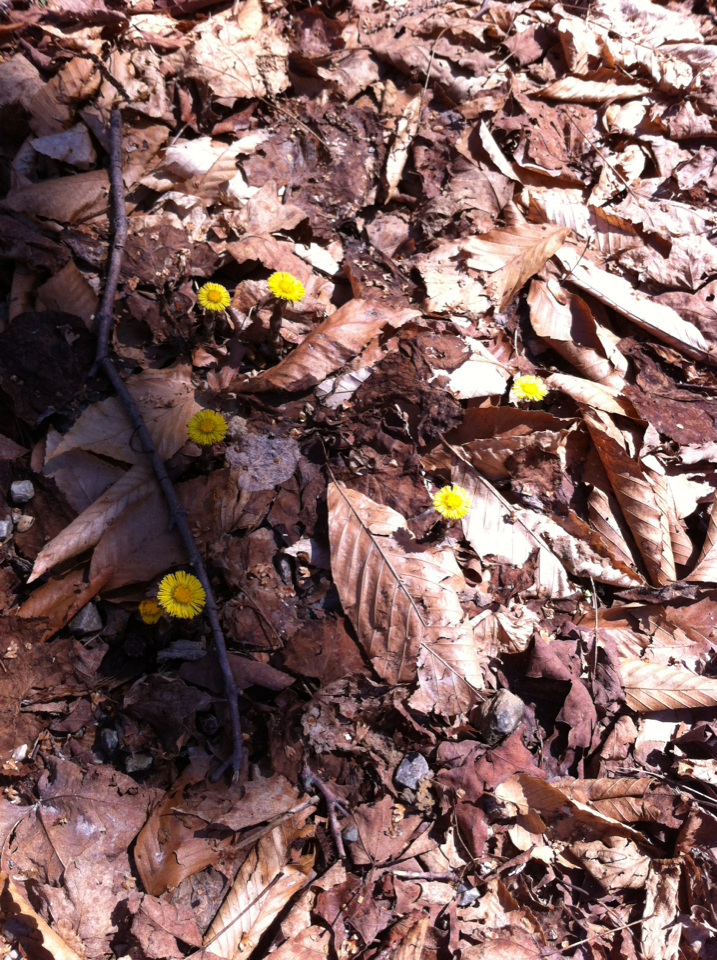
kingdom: Plantae
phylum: Tracheophyta
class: Magnoliopsida
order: Asterales
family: Asteraceae
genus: Tussilago
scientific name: Tussilago farfara
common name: Coltsfoot
